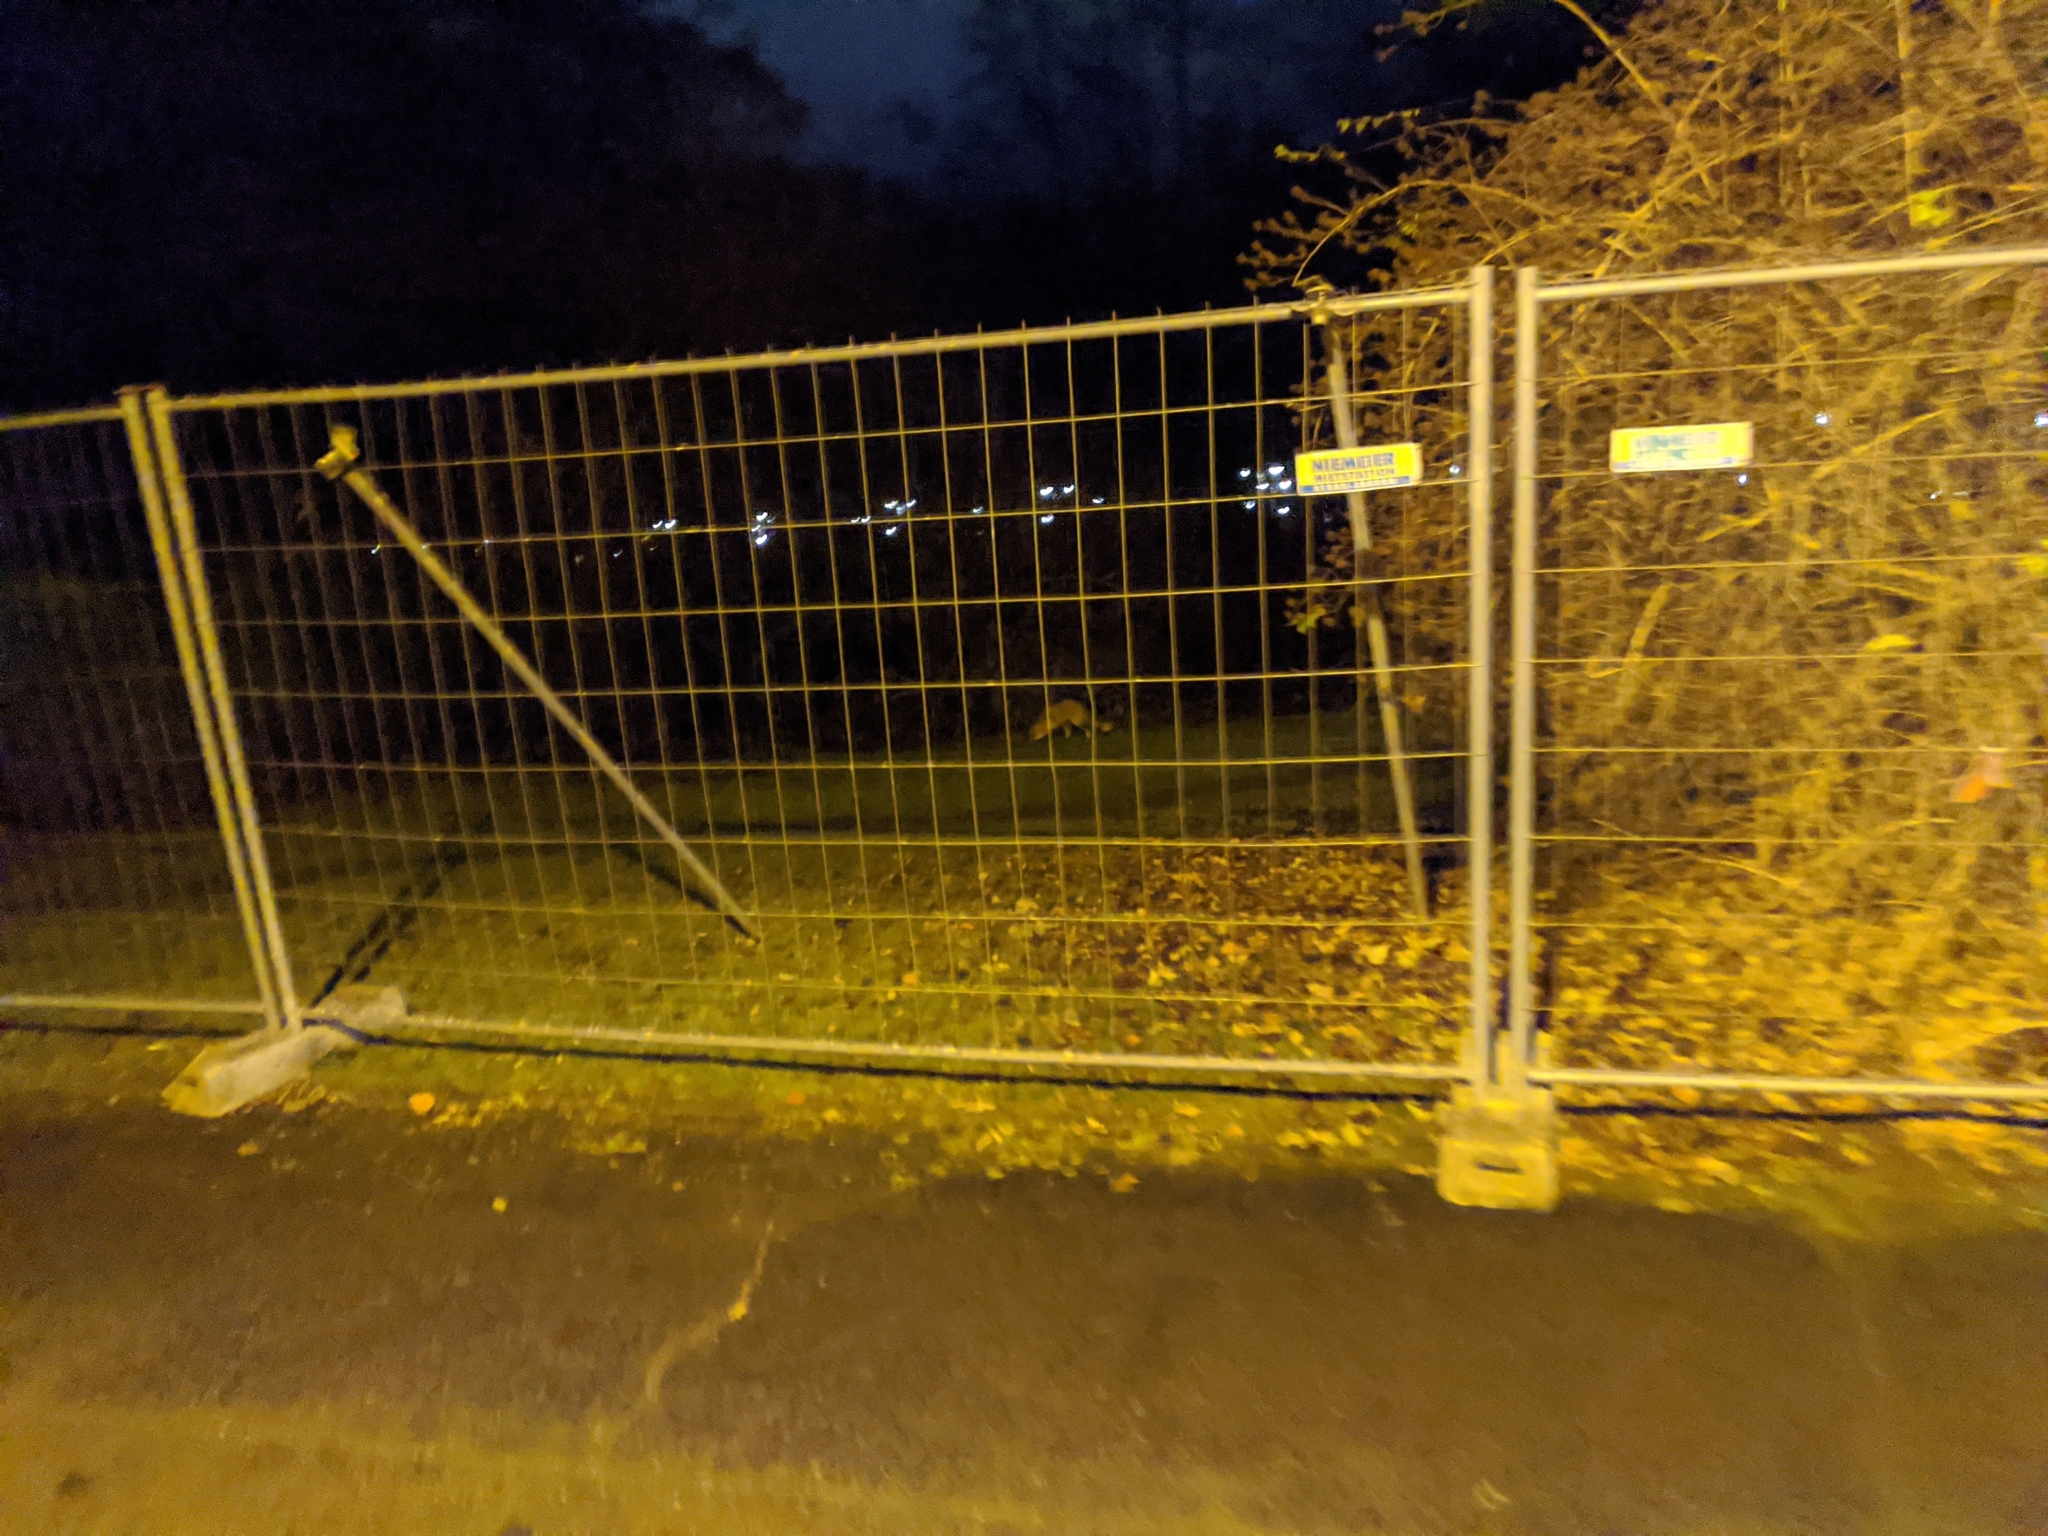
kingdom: Animalia
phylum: Chordata
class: Mammalia
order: Carnivora
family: Canidae
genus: Vulpes
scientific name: Vulpes vulpes
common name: Red fox
